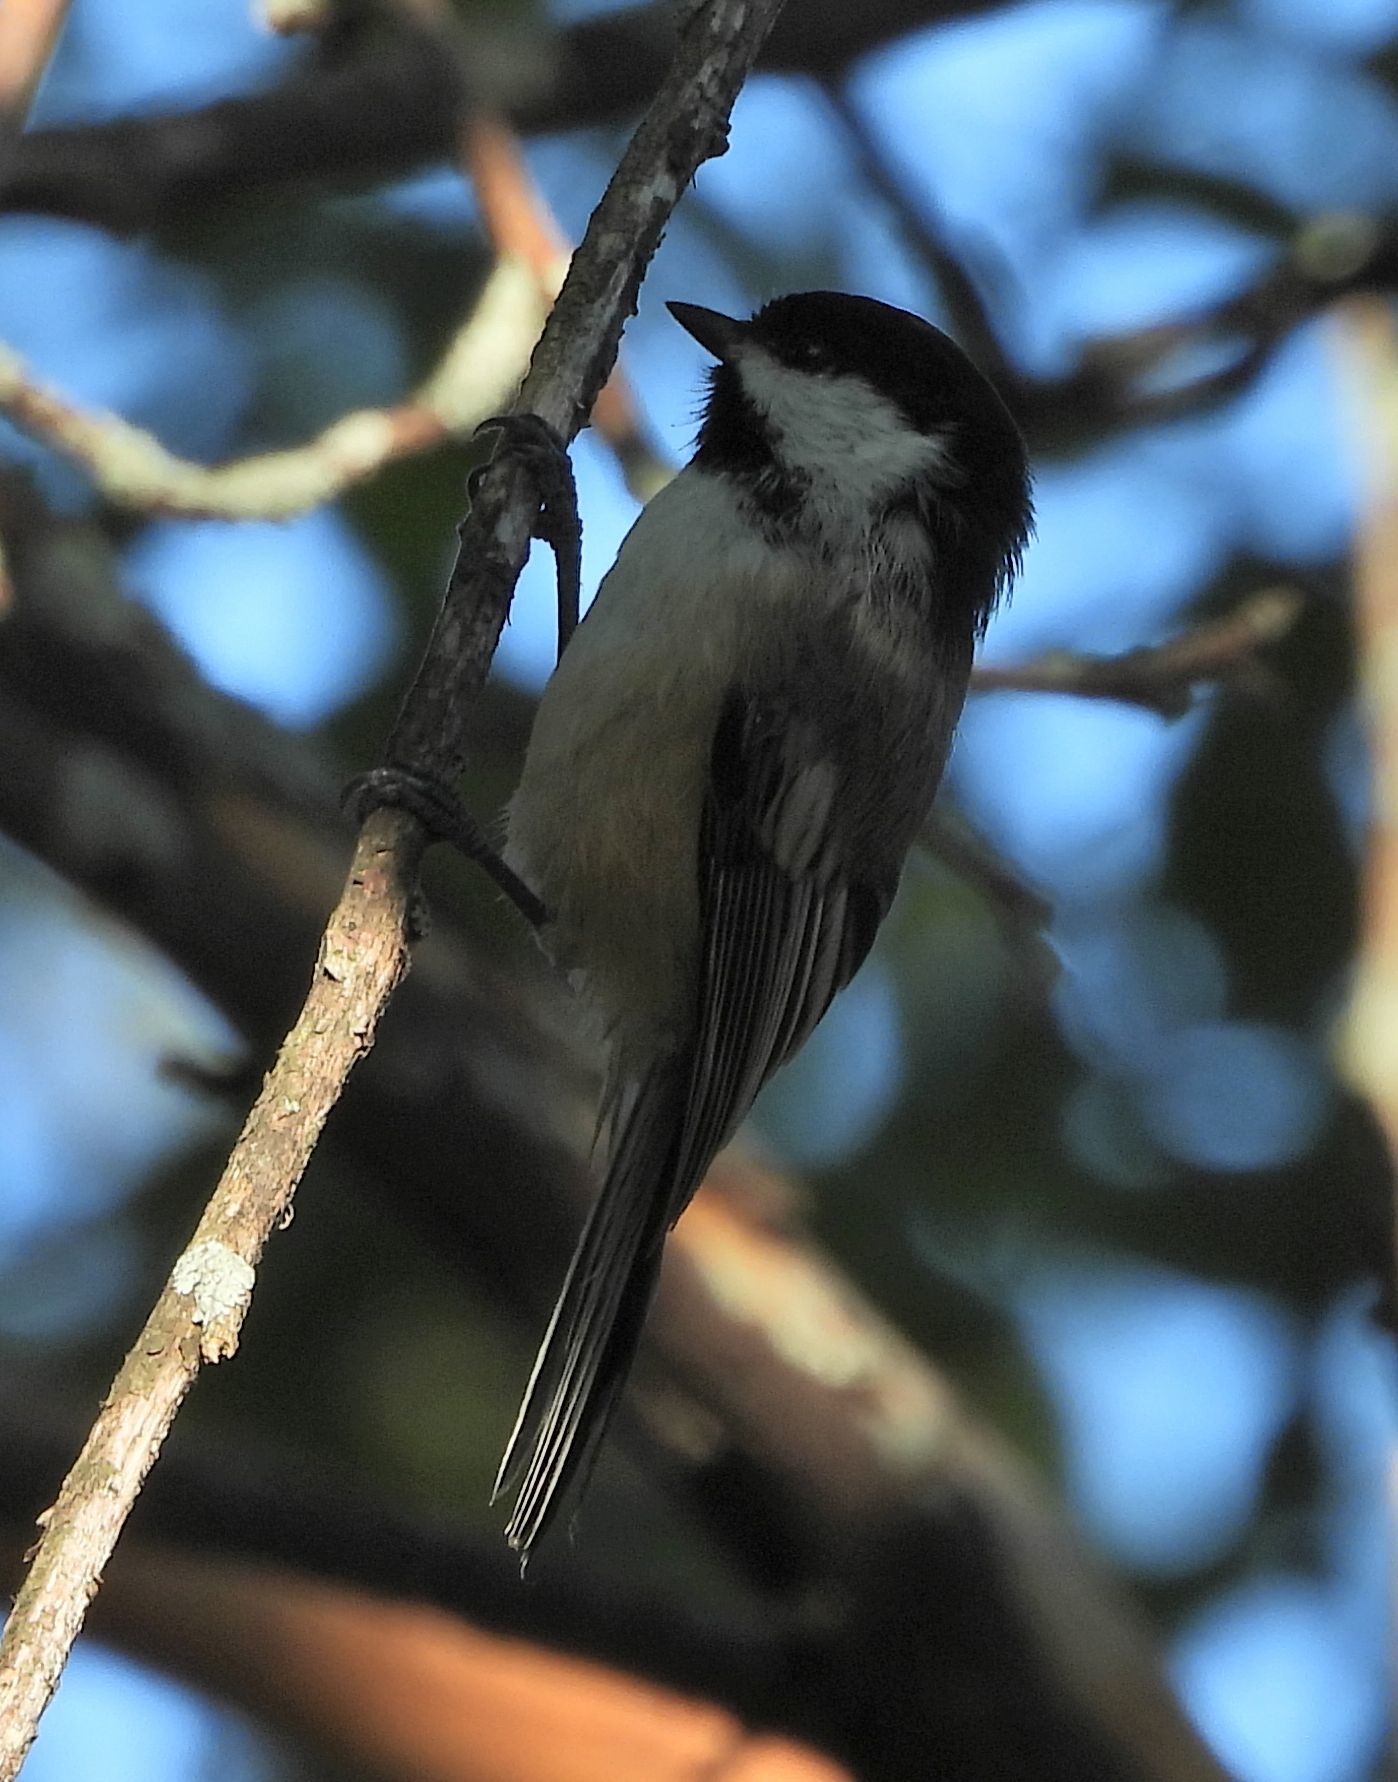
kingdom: Animalia
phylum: Chordata
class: Aves
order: Passeriformes
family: Paridae
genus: Poecile
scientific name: Poecile atricapillus
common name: Black-capped chickadee
